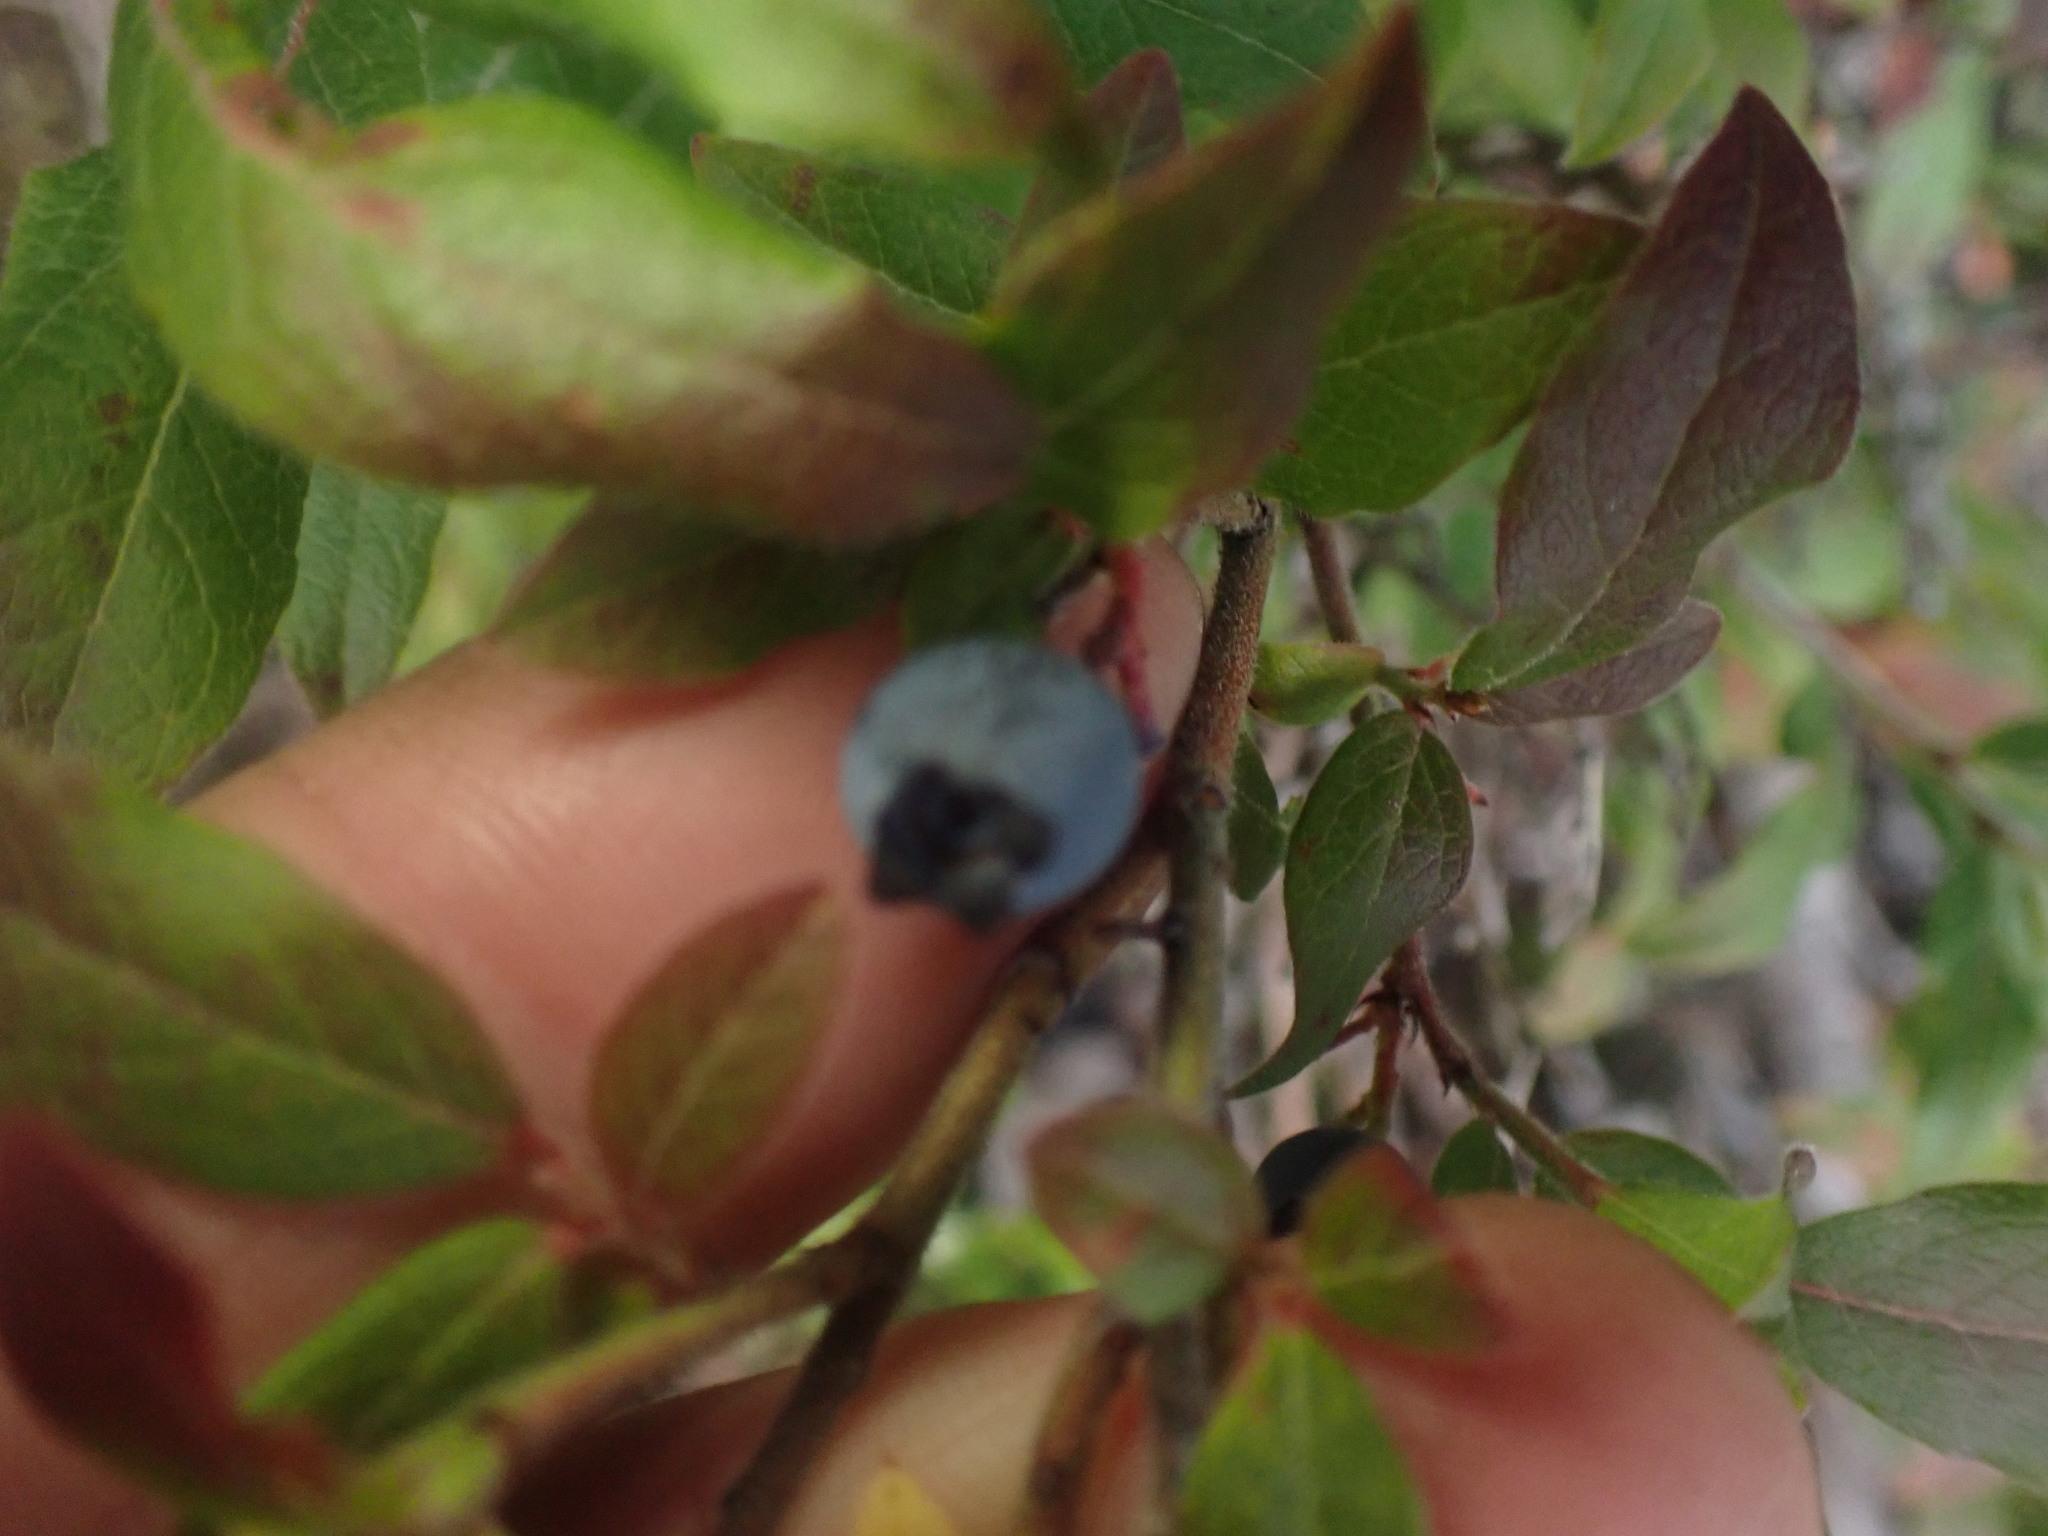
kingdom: Plantae
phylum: Tracheophyta
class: Magnoliopsida
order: Ericales
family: Ericaceae
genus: Vaccinium
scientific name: Vaccinium myrtilloides
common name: Canada blueberry
